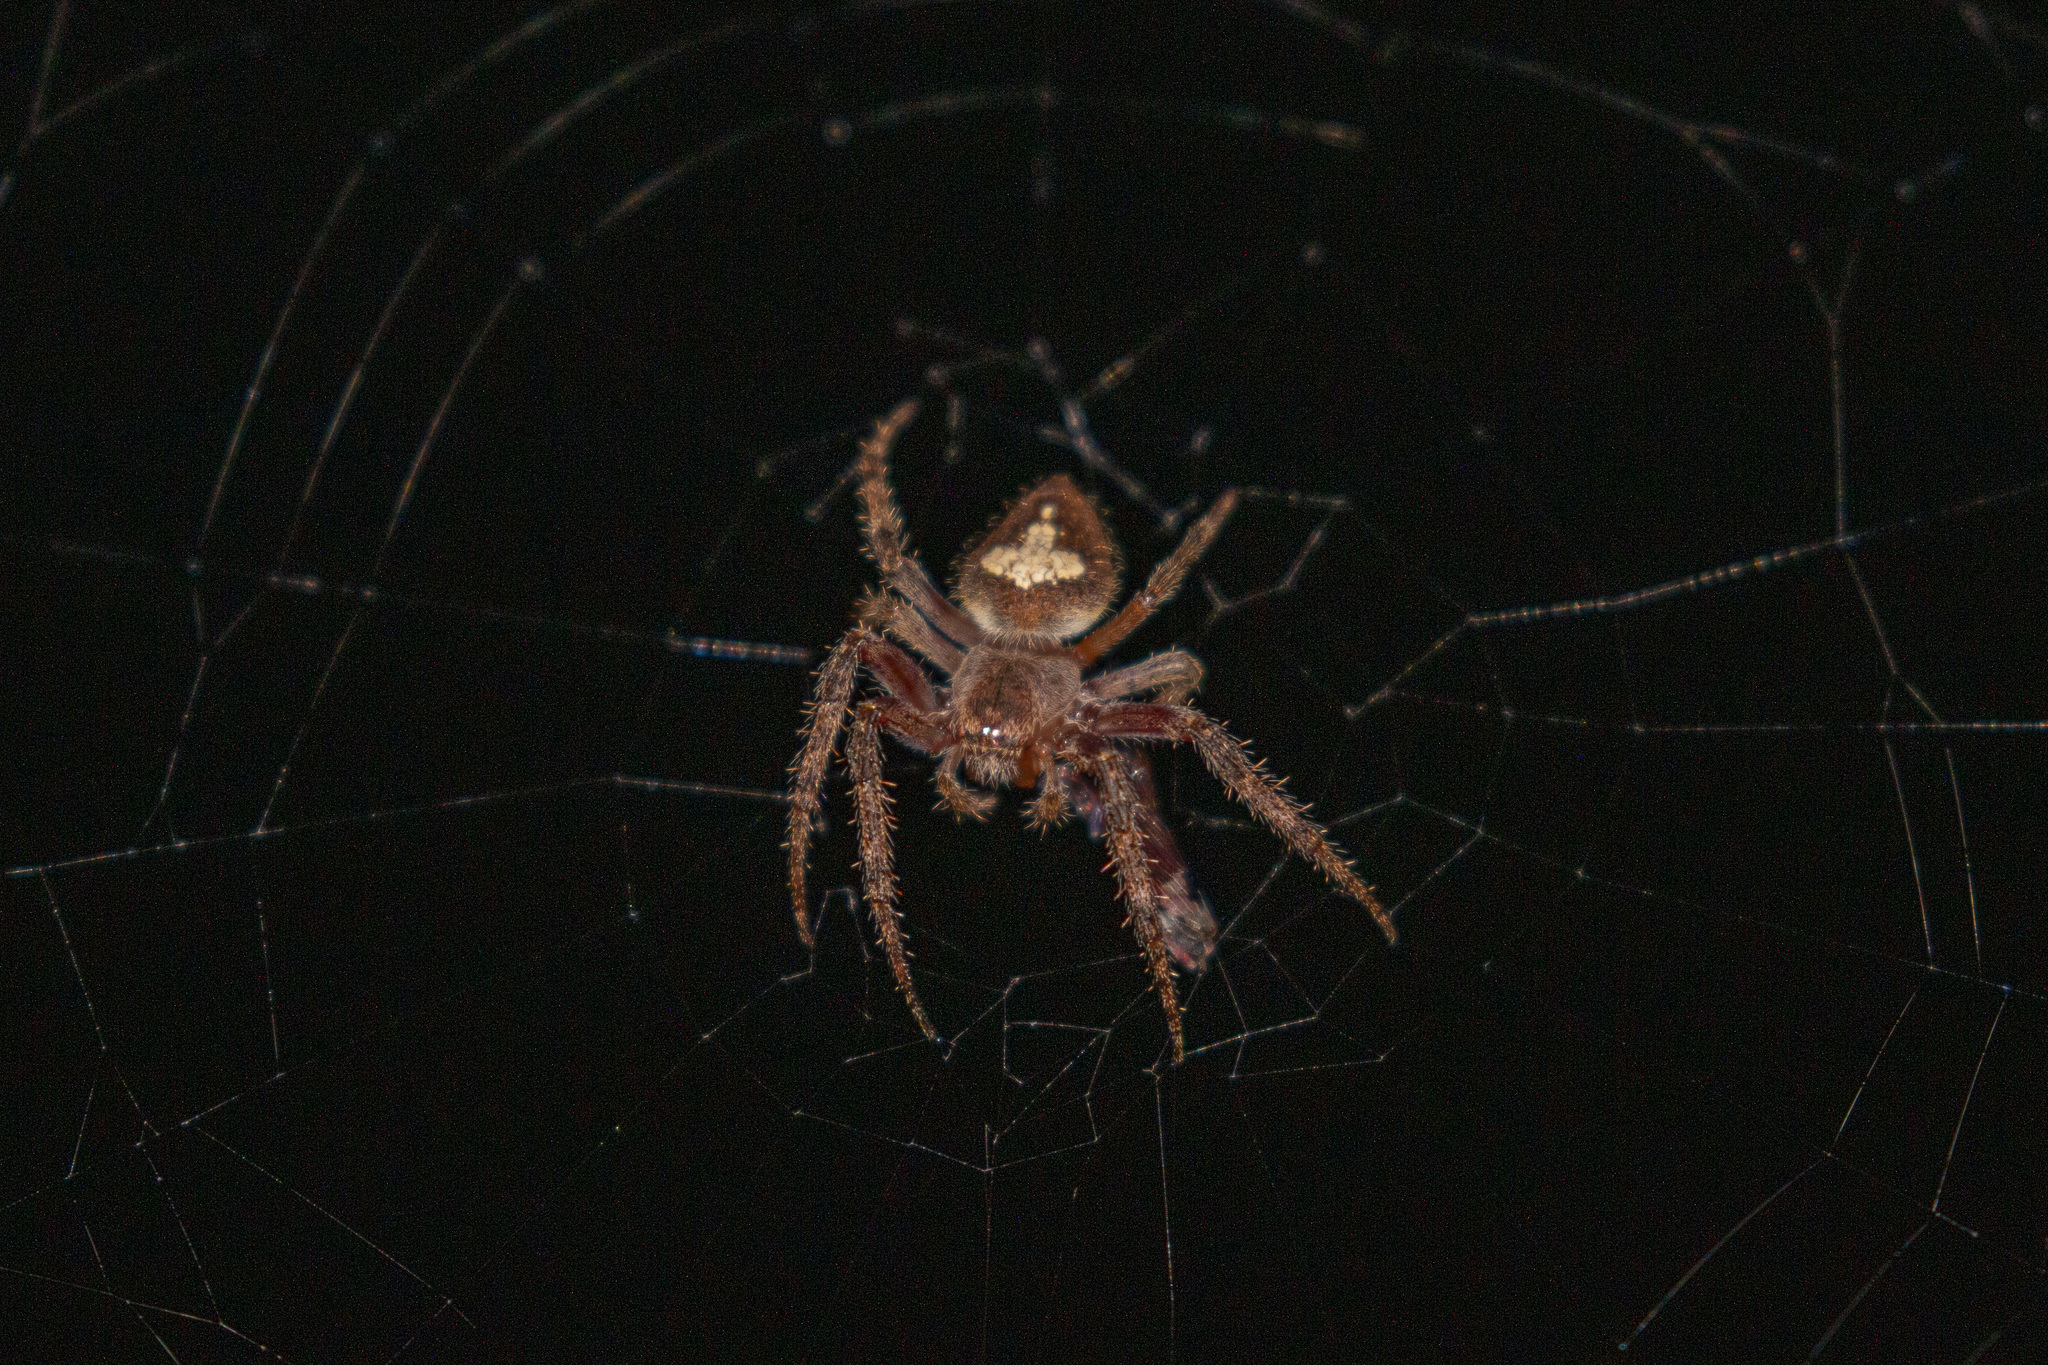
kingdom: Animalia
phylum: Arthropoda
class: Arachnida
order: Araneae
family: Araneidae
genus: Eriophora
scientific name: Eriophora edax
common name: Orb weavers
